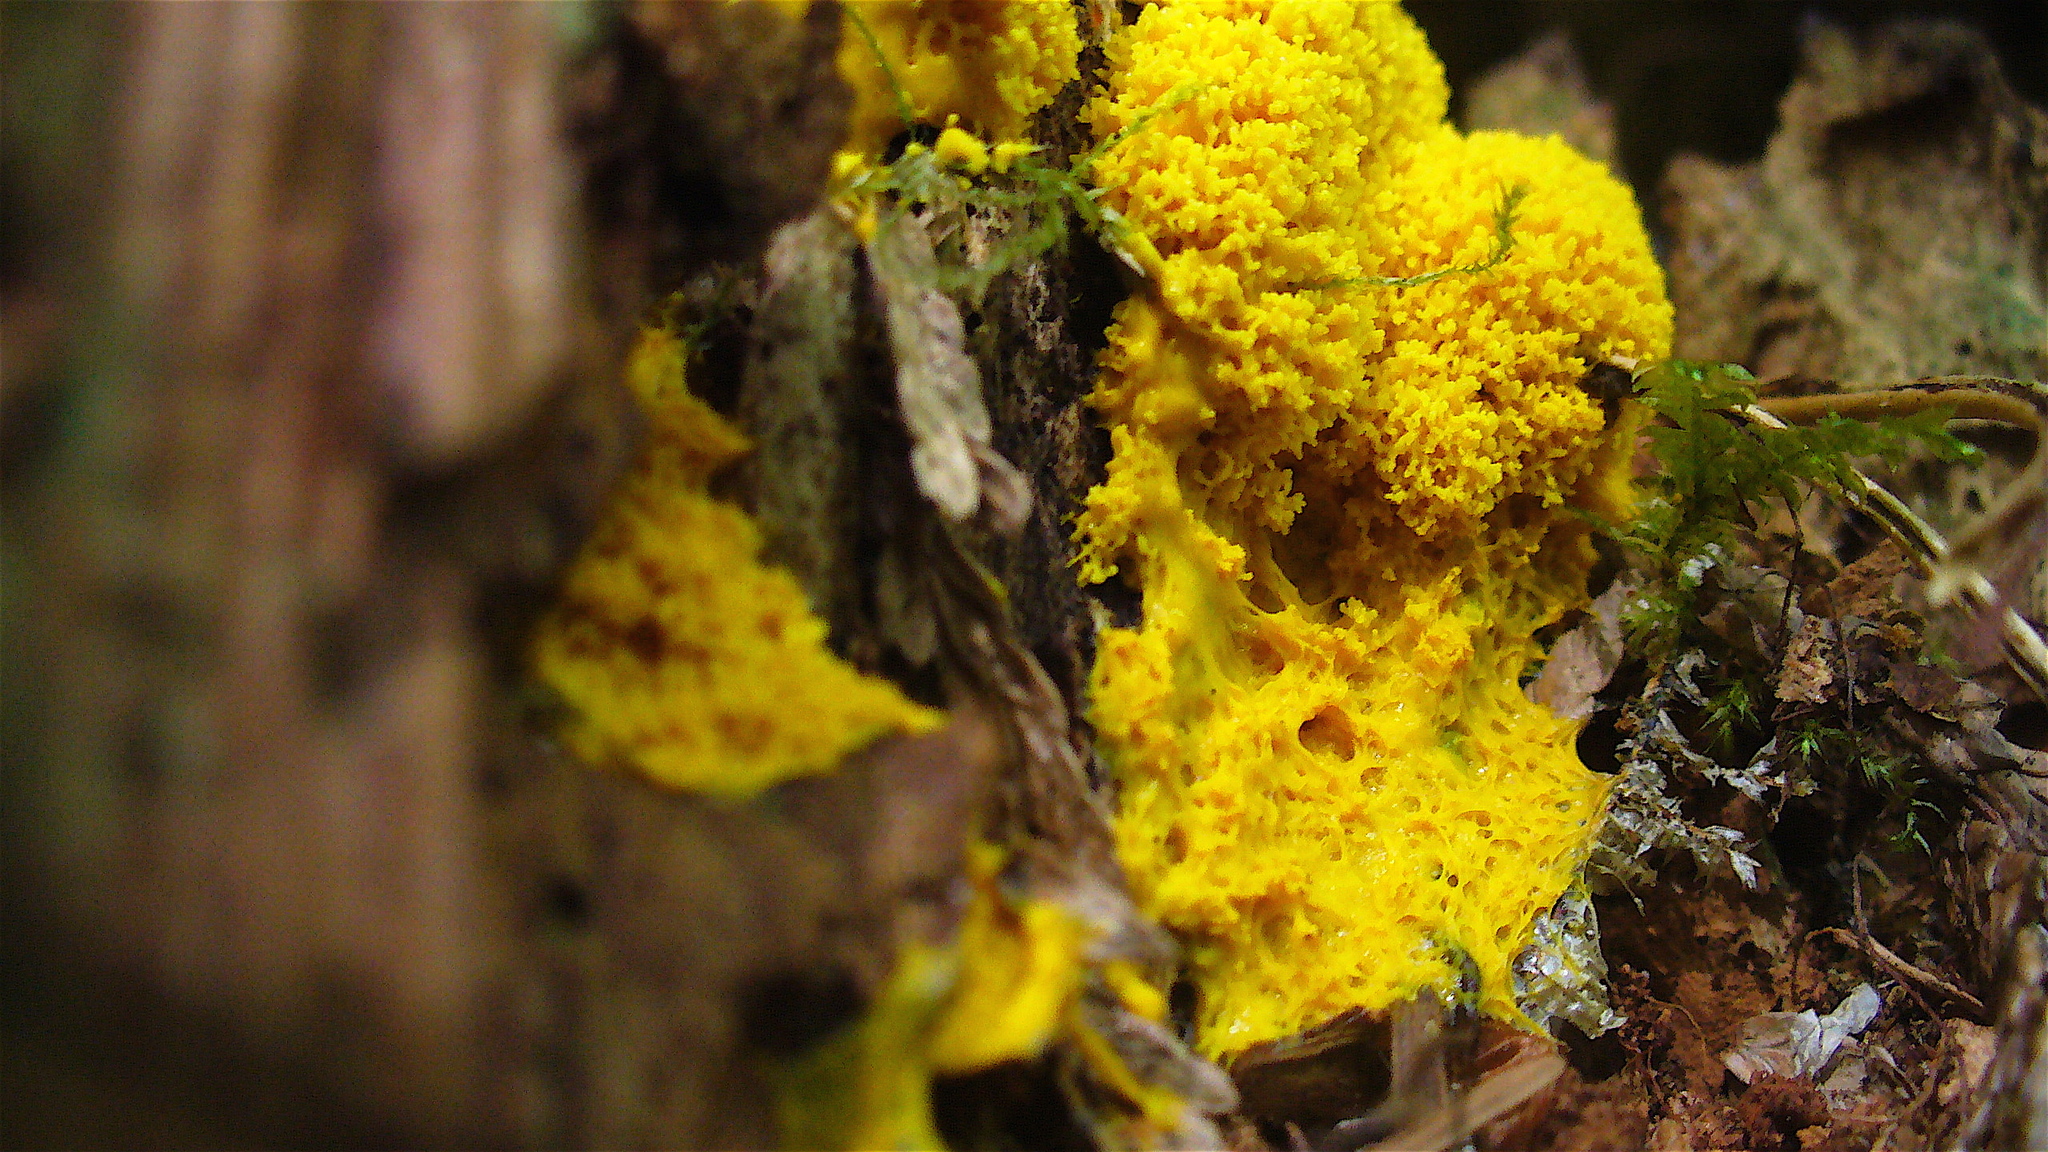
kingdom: Protozoa
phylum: Mycetozoa
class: Myxomycetes
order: Physarales
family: Physaraceae
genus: Fuligo
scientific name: Fuligo septica
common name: Dog vomit slime mold
